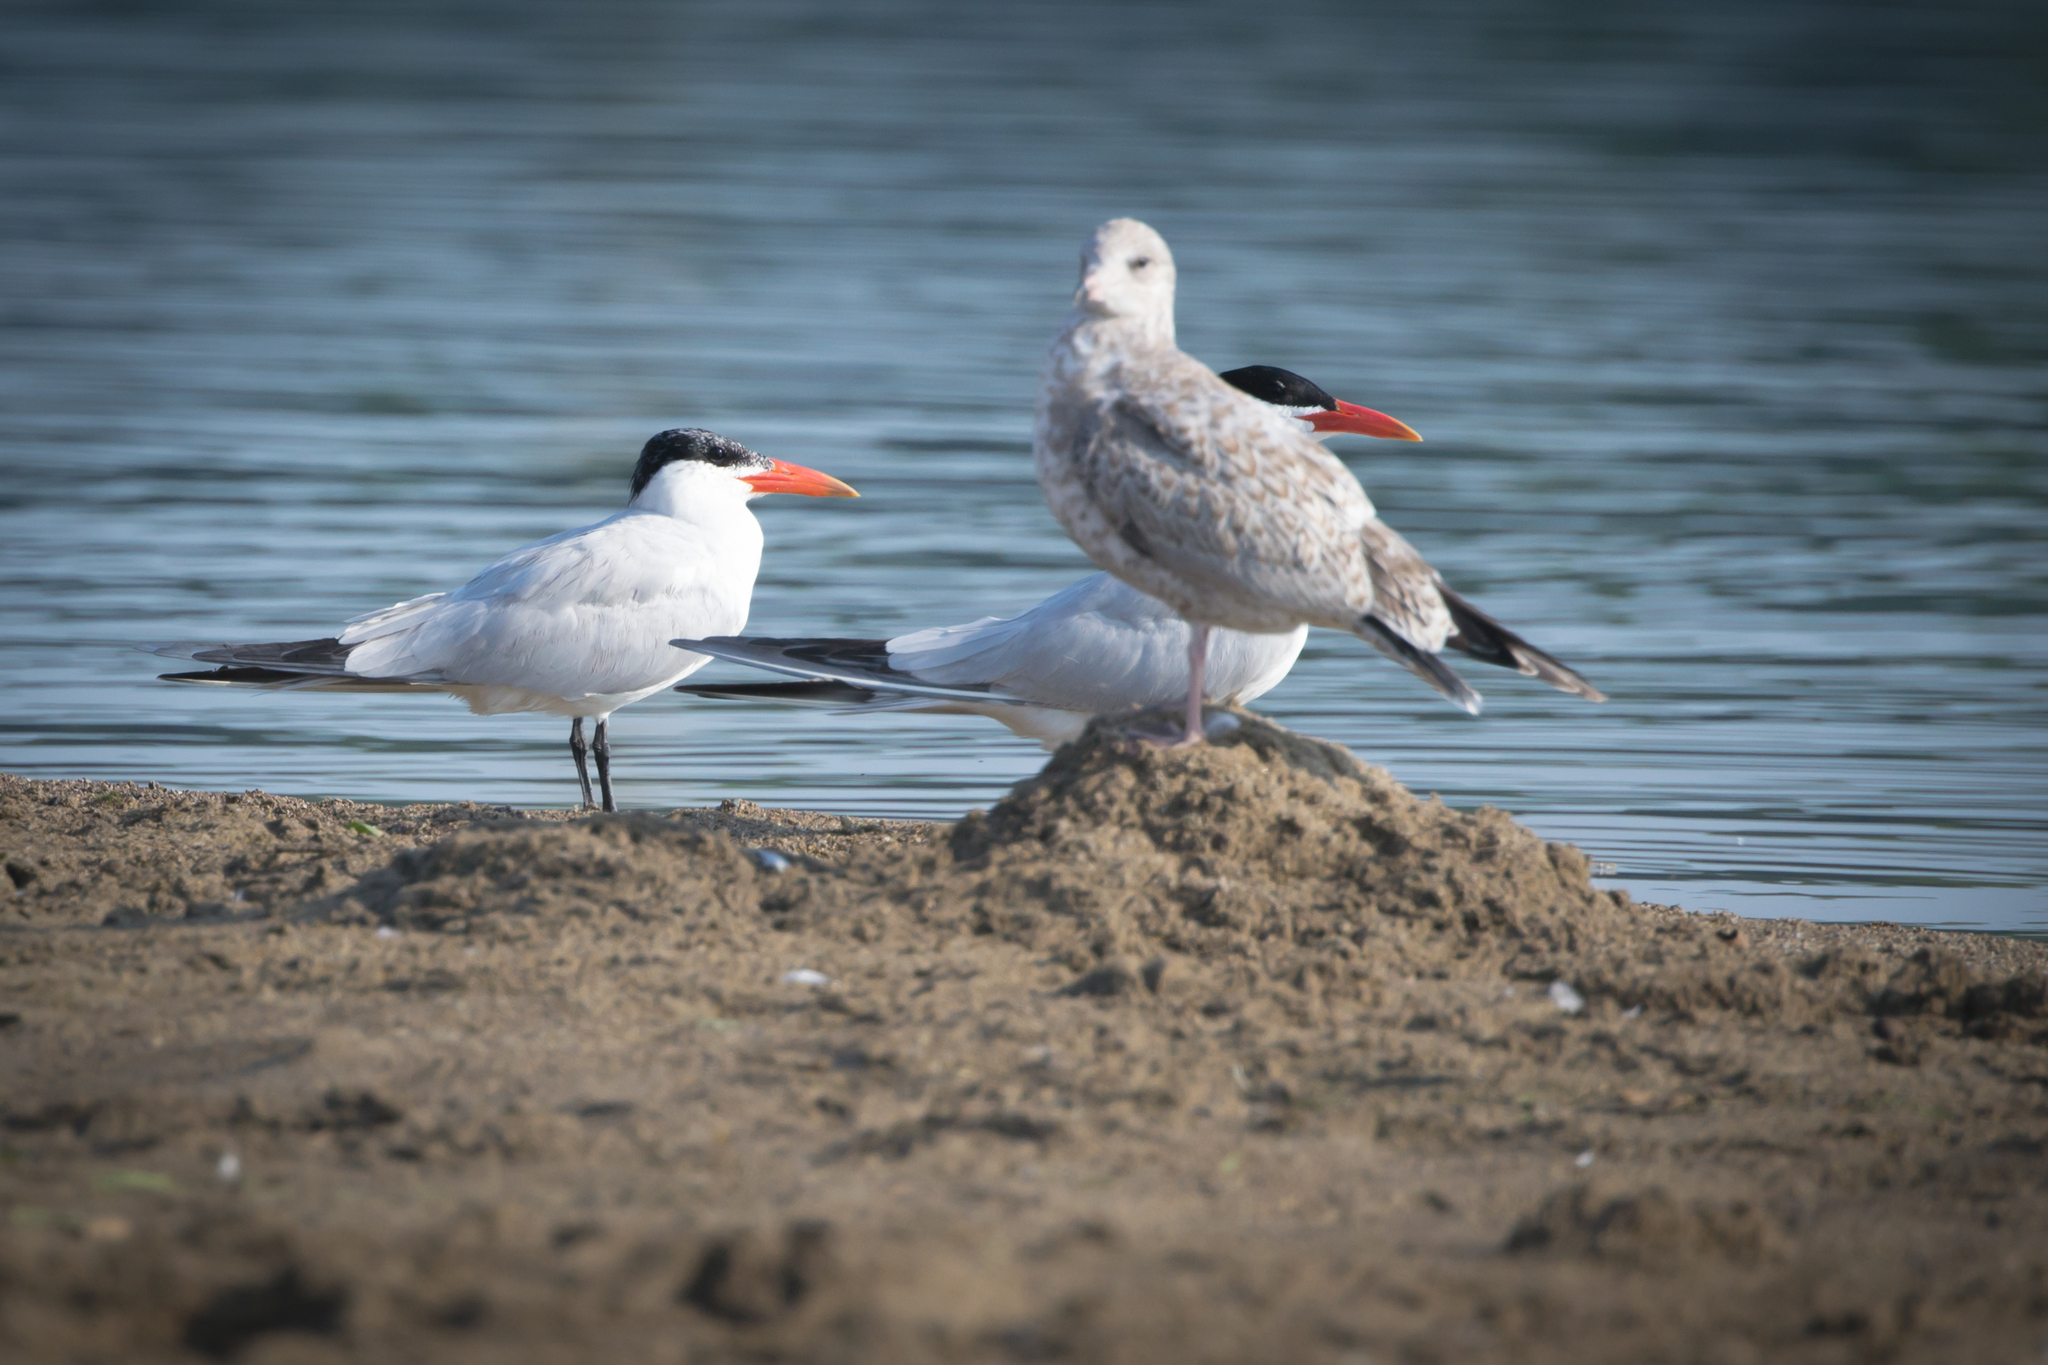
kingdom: Animalia
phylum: Chordata
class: Aves
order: Charadriiformes
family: Laridae
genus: Hydroprogne
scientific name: Hydroprogne caspia
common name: Caspian tern
